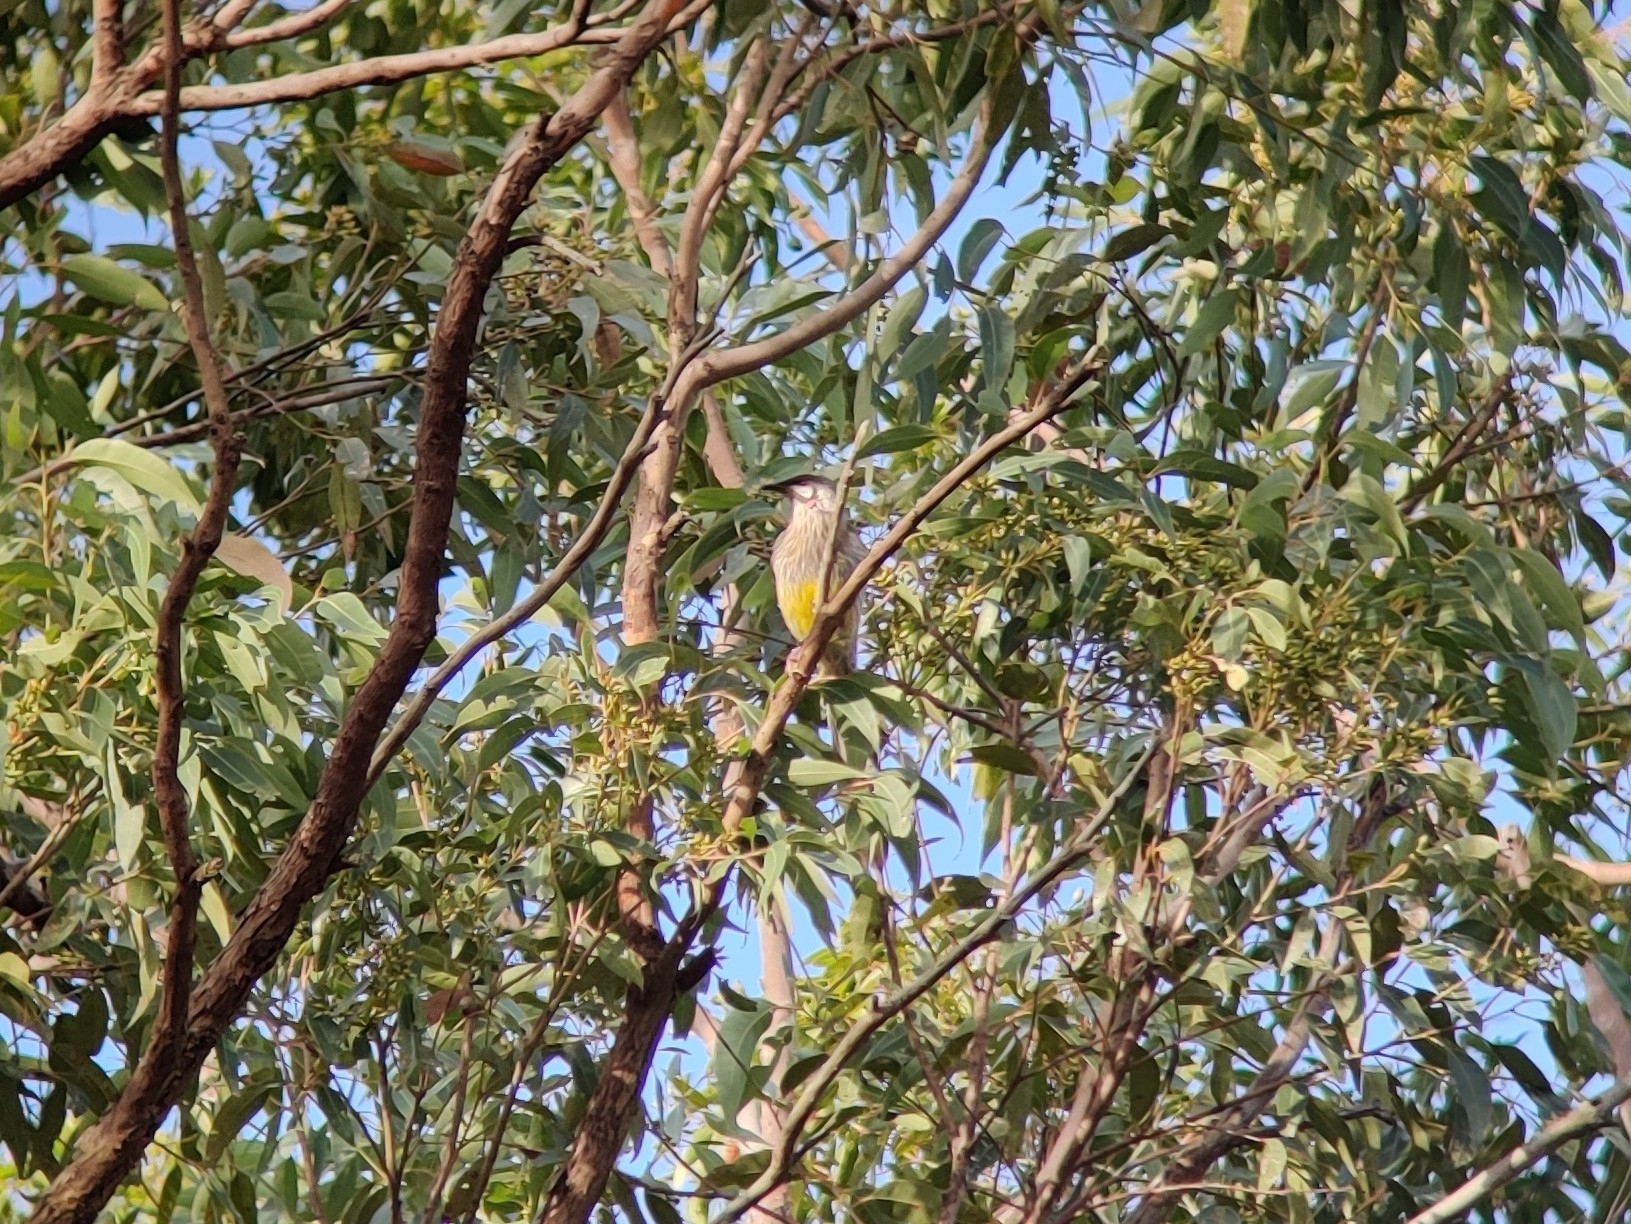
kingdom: Animalia
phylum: Chordata
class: Aves
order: Passeriformes
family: Meliphagidae
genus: Anthochaera
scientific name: Anthochaera carunculata
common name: Red wattlebird
